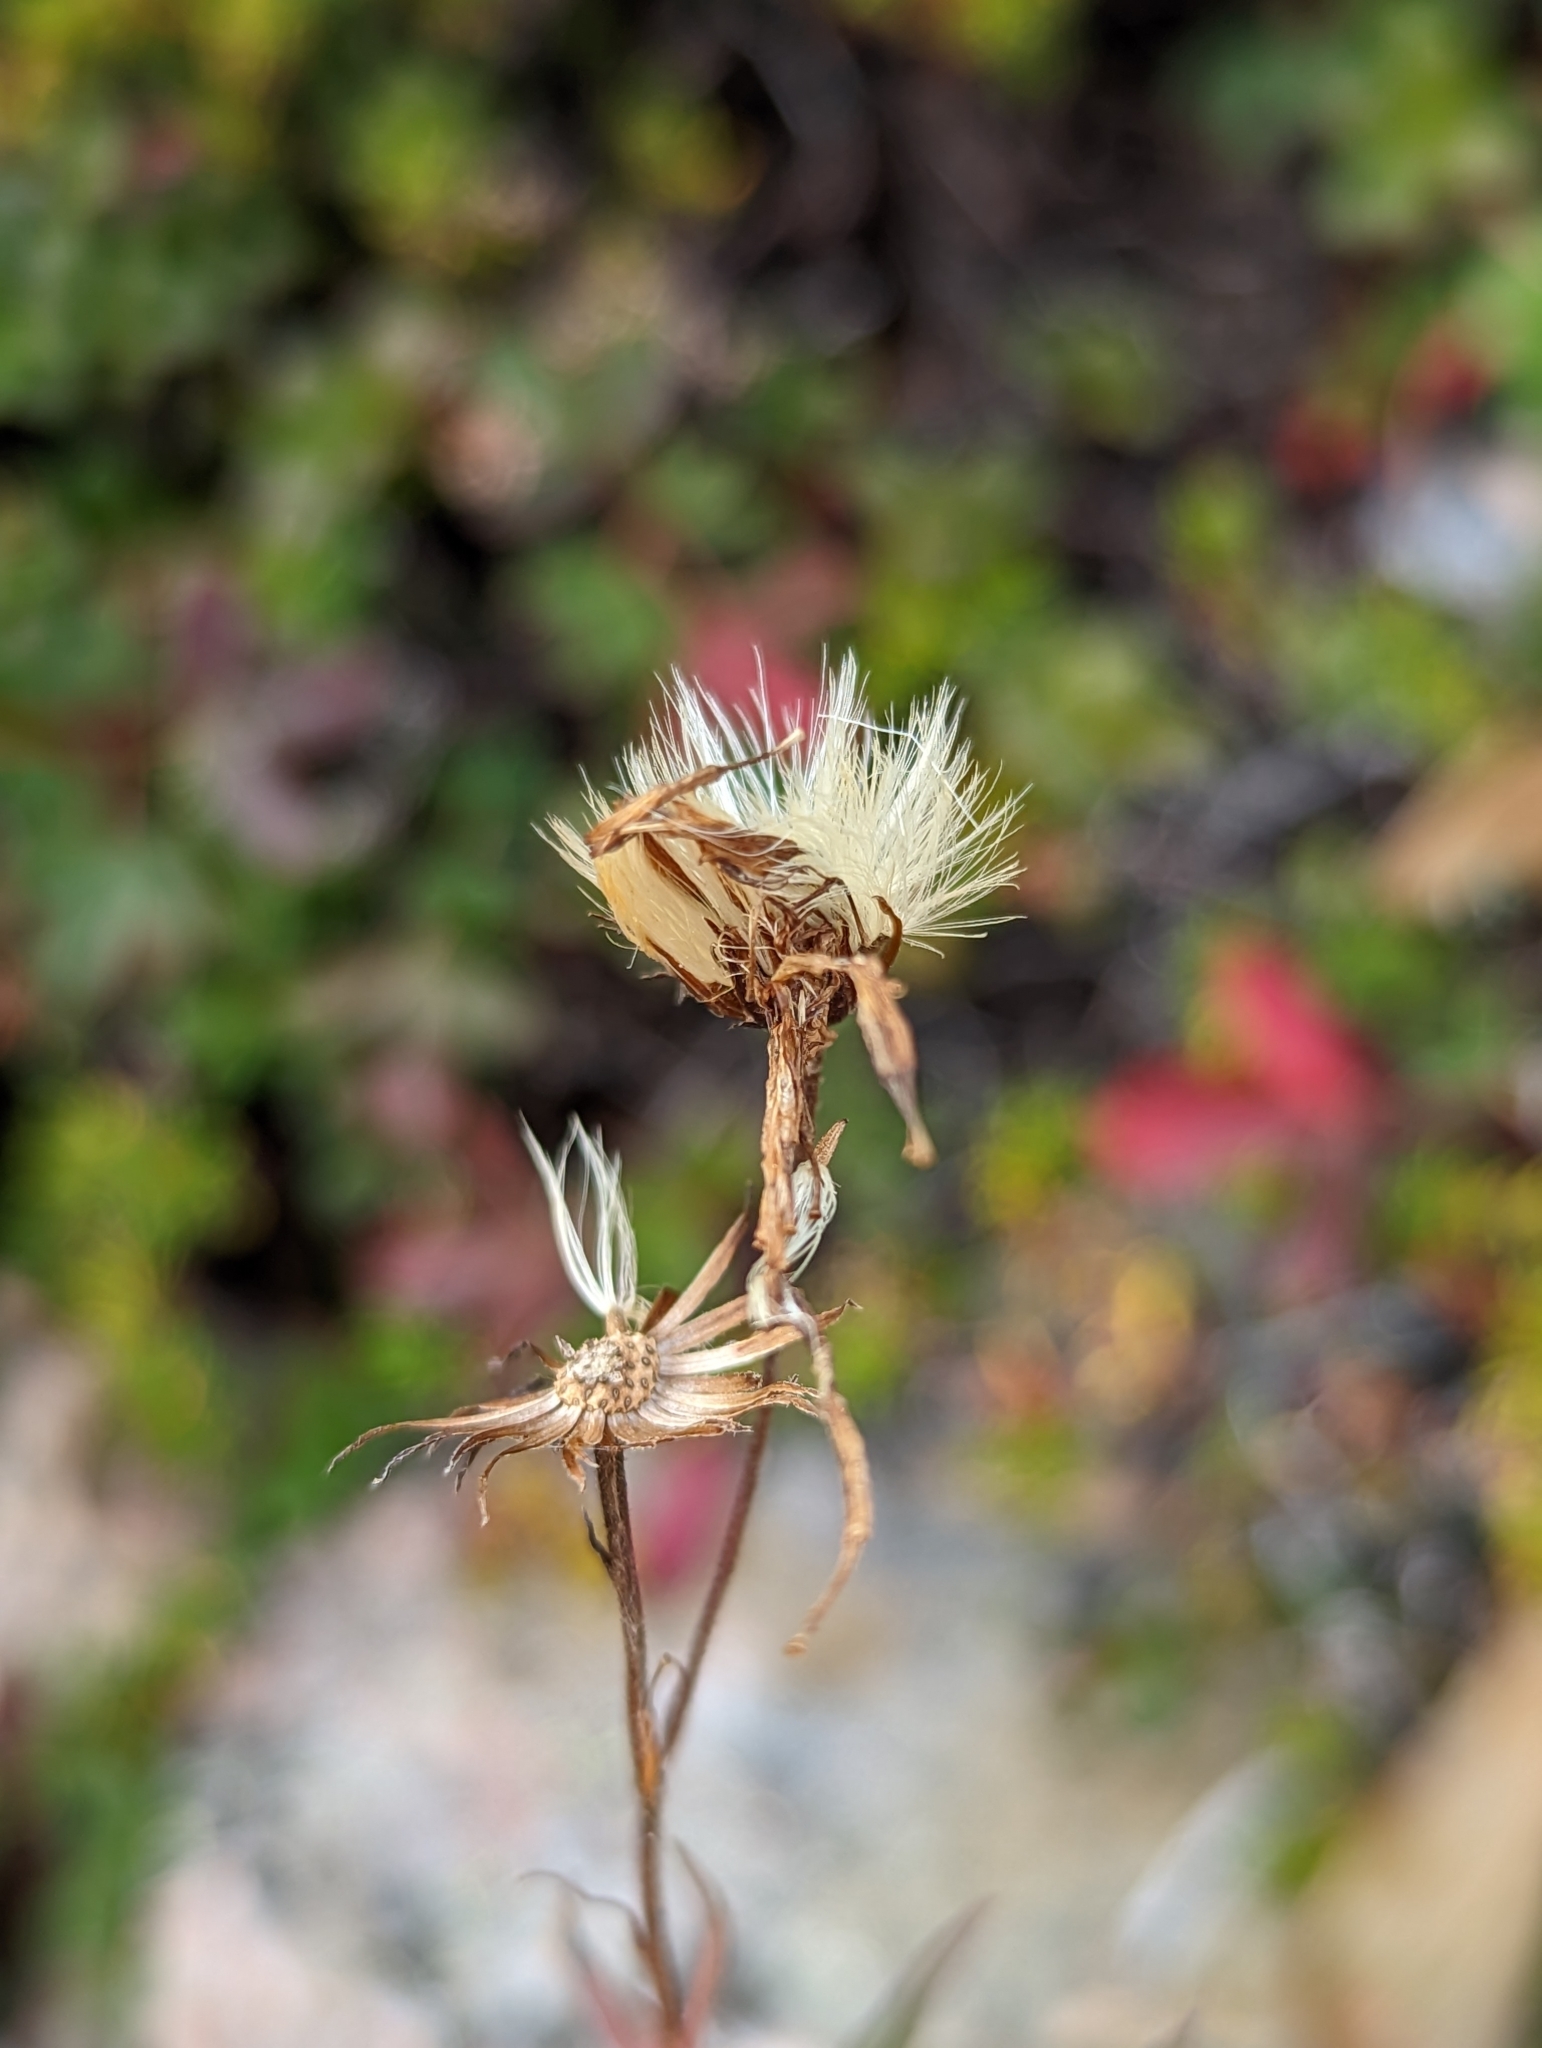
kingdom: Plantae
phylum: Tracheophyta
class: Magnoliopsida
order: Asterales
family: Asteraceae
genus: Oclemena
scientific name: Oclemena blakei
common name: Blake's aster
